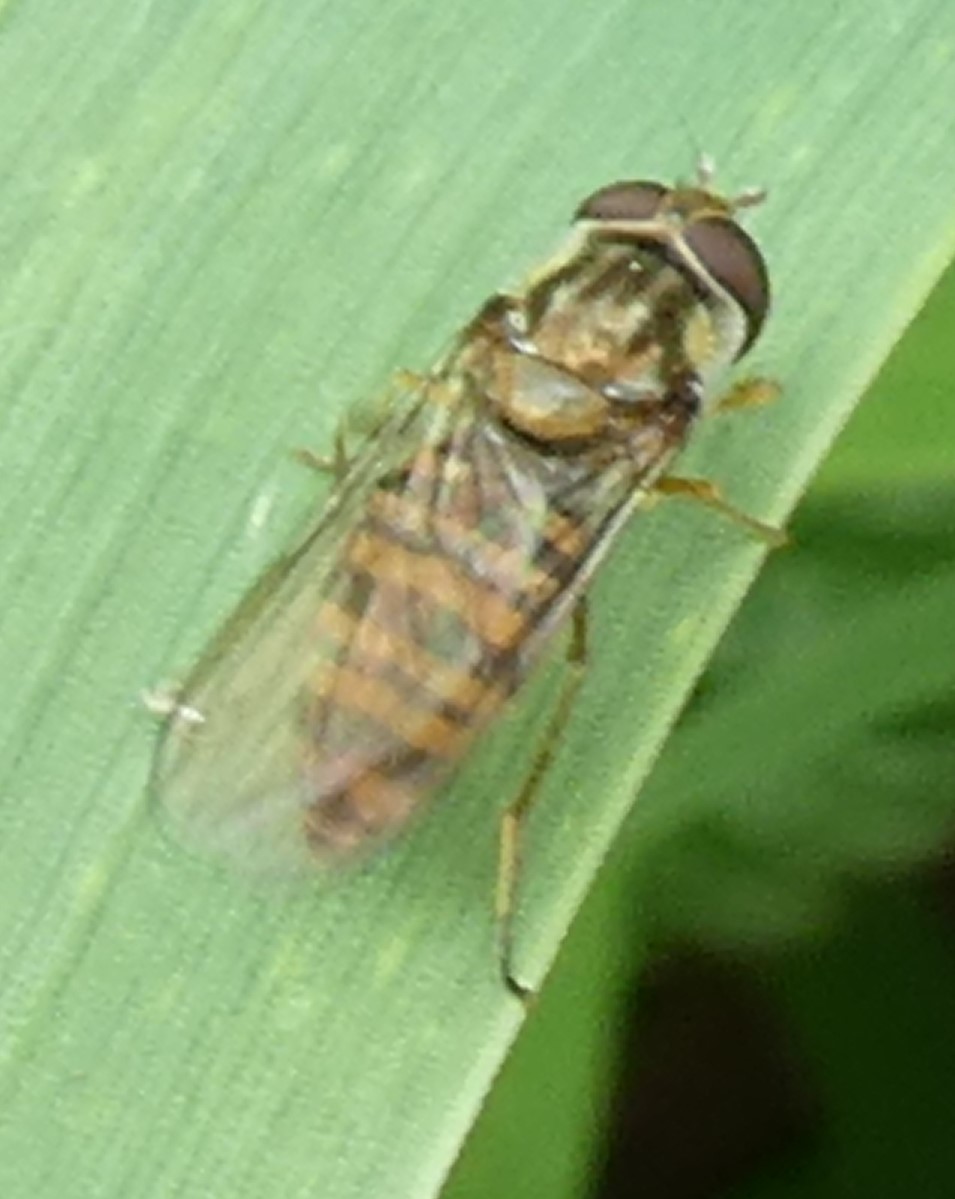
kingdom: Animalia
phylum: Arthropoda
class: Insecta
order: Diptera
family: Syrphidae
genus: Episyrphus
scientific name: Episyrphus balteatus
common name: Marmalade hoverfly
